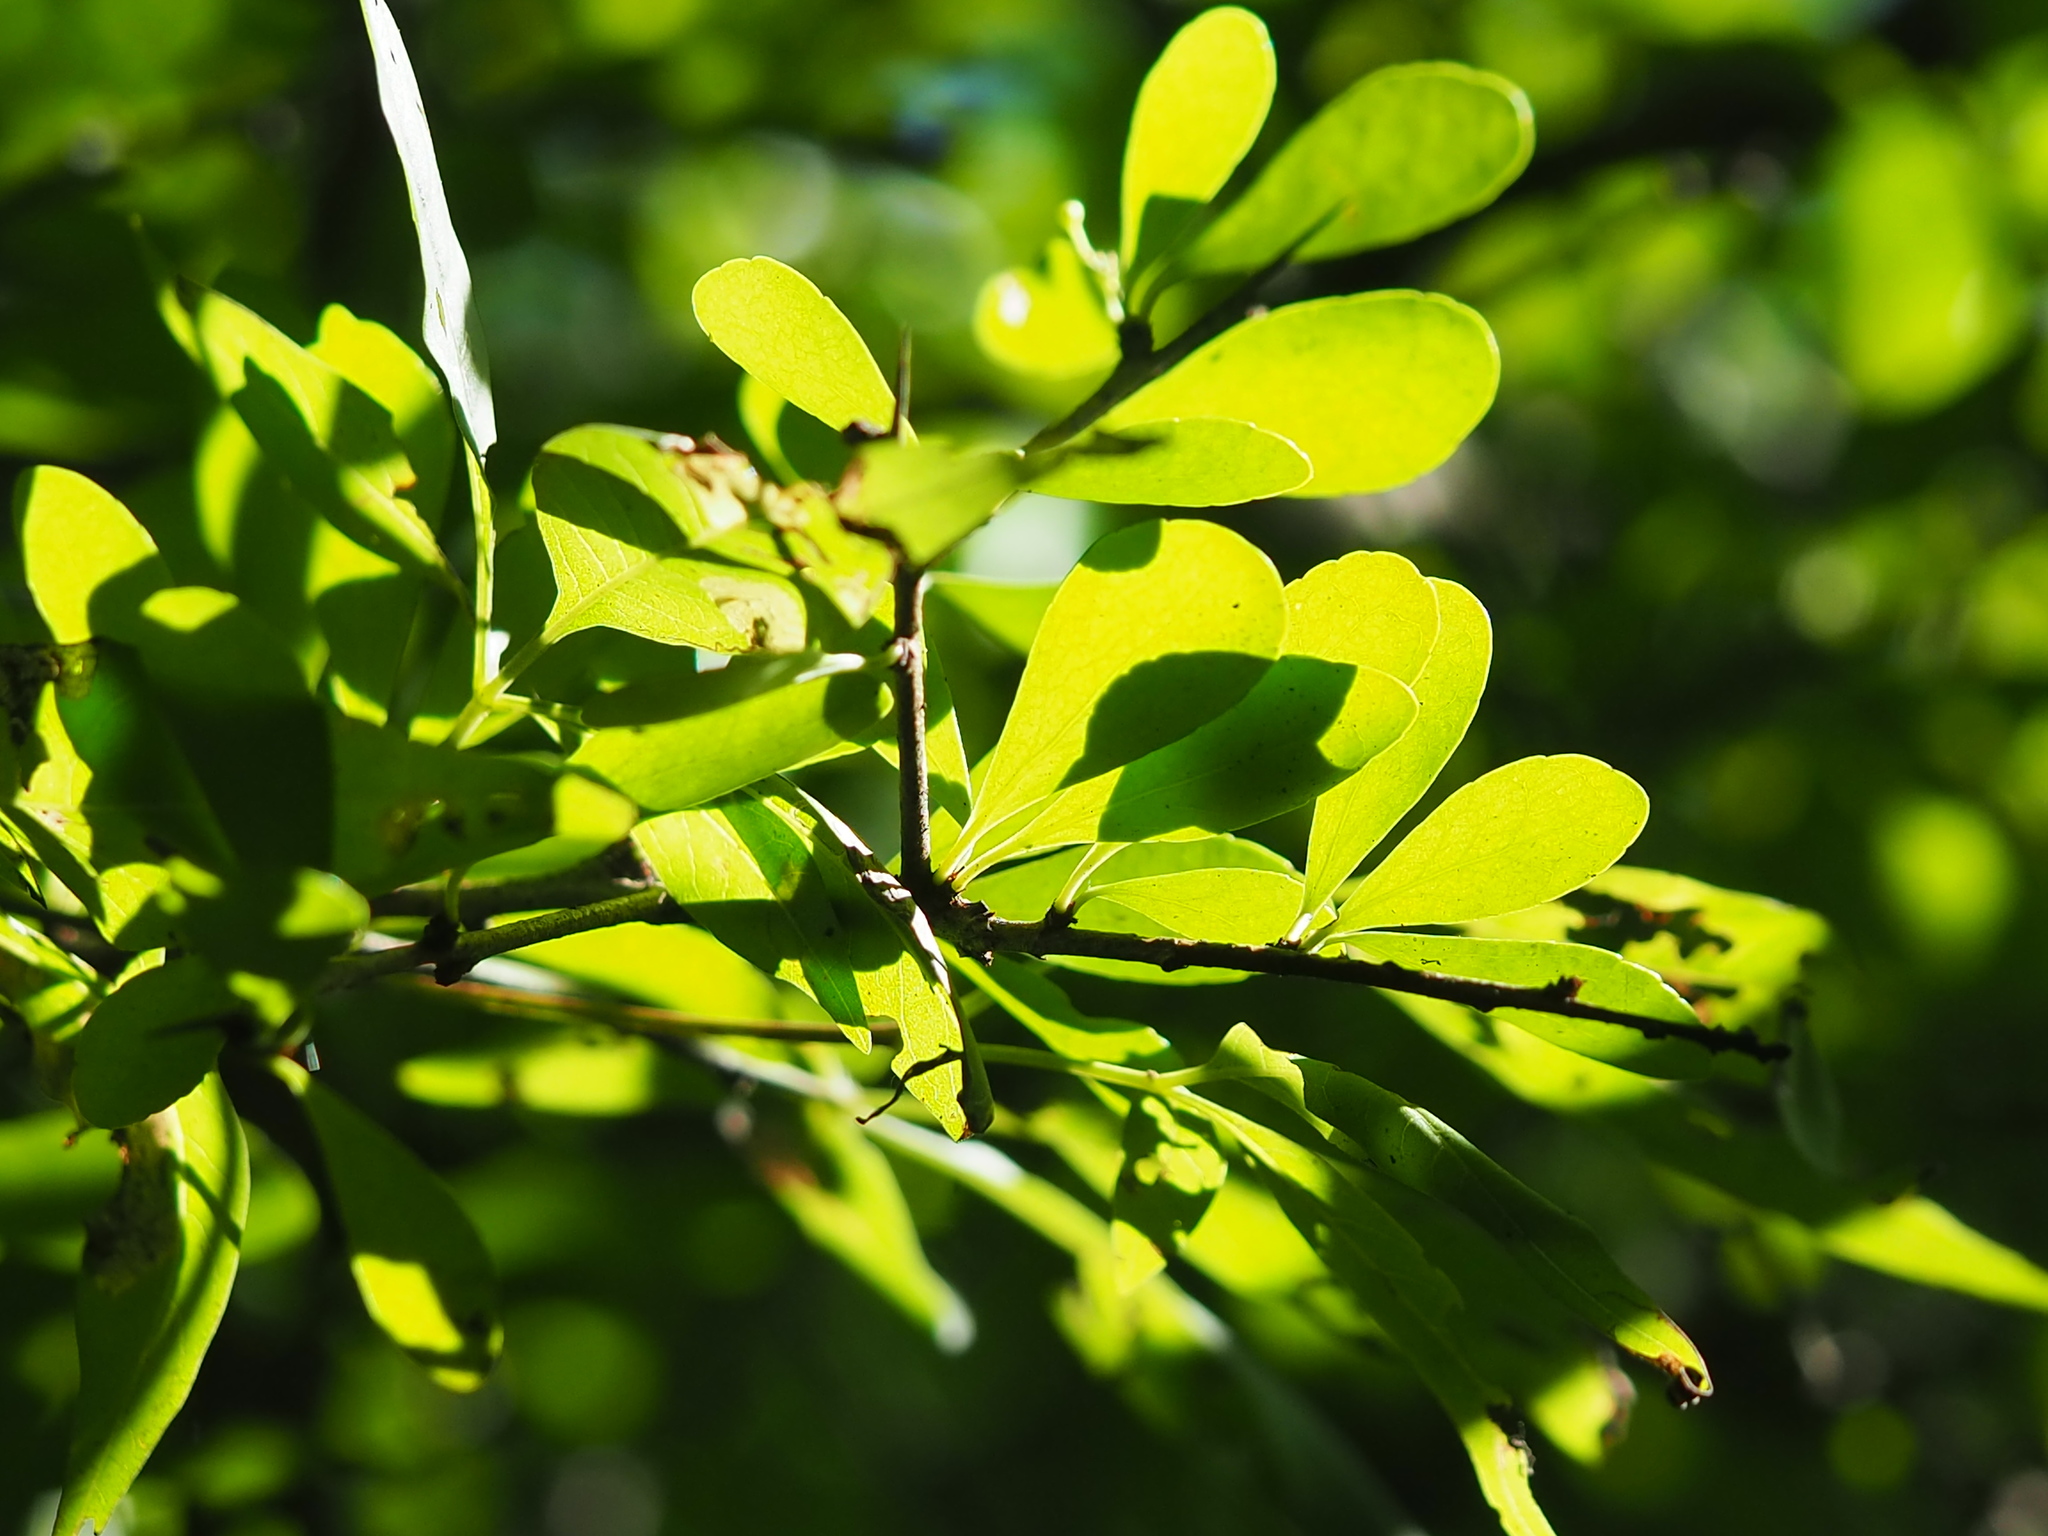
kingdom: Plantae
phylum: Tracheophyta
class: Magnoliopsida
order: Celastrales
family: Celastraceae
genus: Gymnosporia
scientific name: Gymnosporia diversifolia
